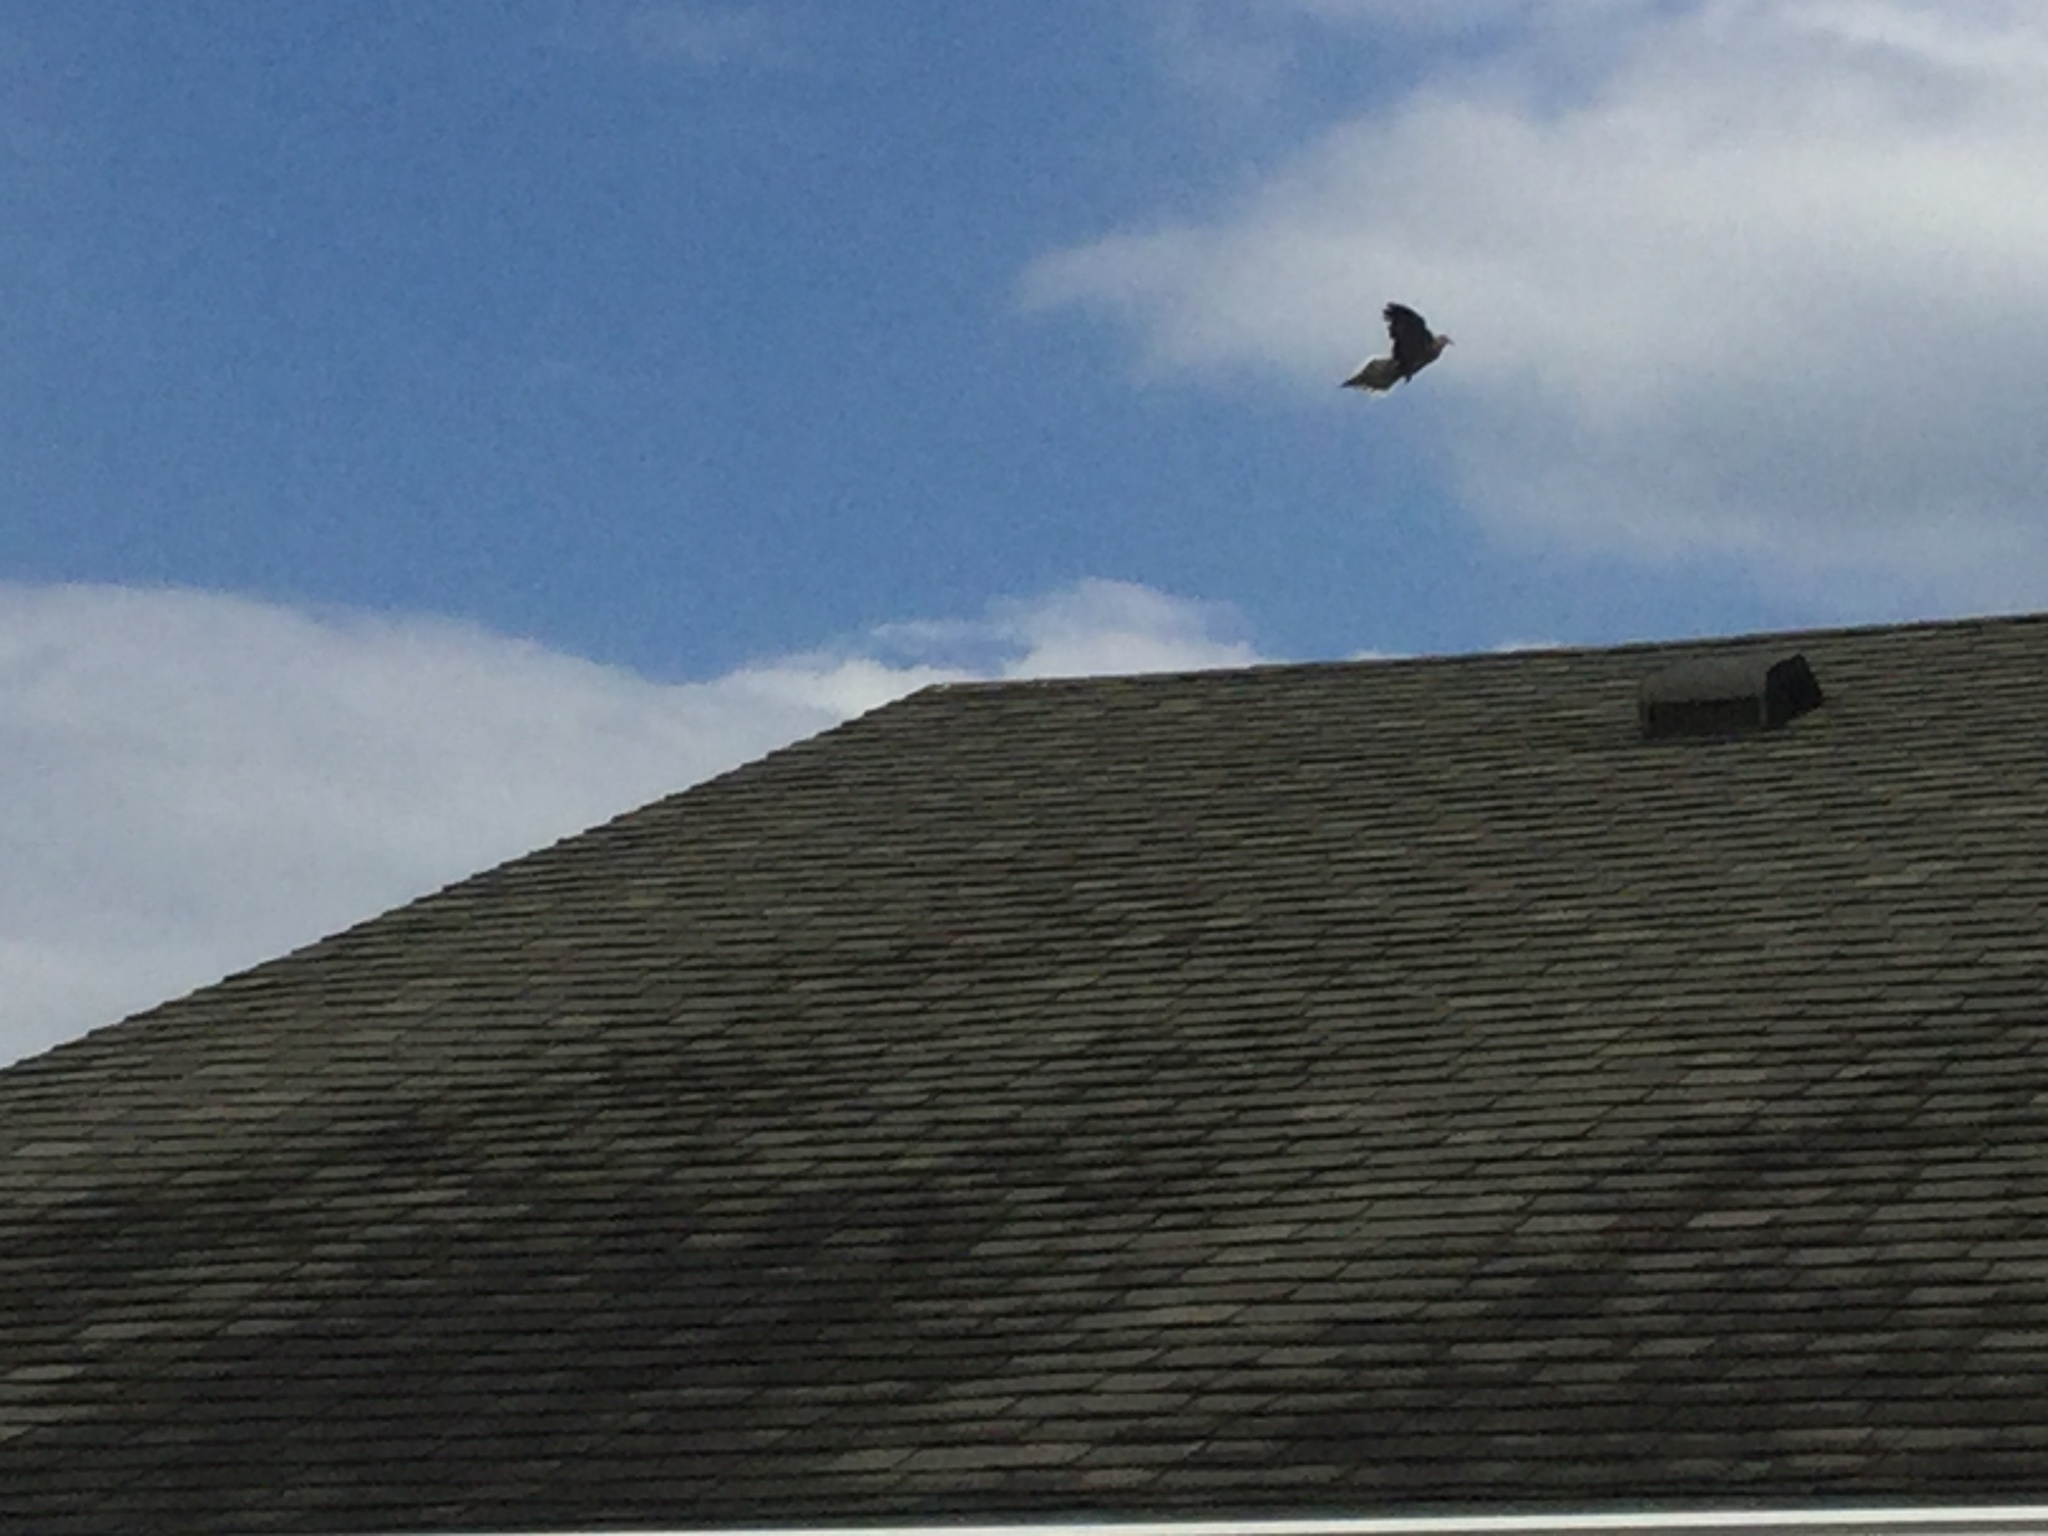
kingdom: Animalia
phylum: Chordata
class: Aves
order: Columbiformes
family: Columbidae
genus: Zenaida
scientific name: Zenaida macroura
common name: Mourning dove
